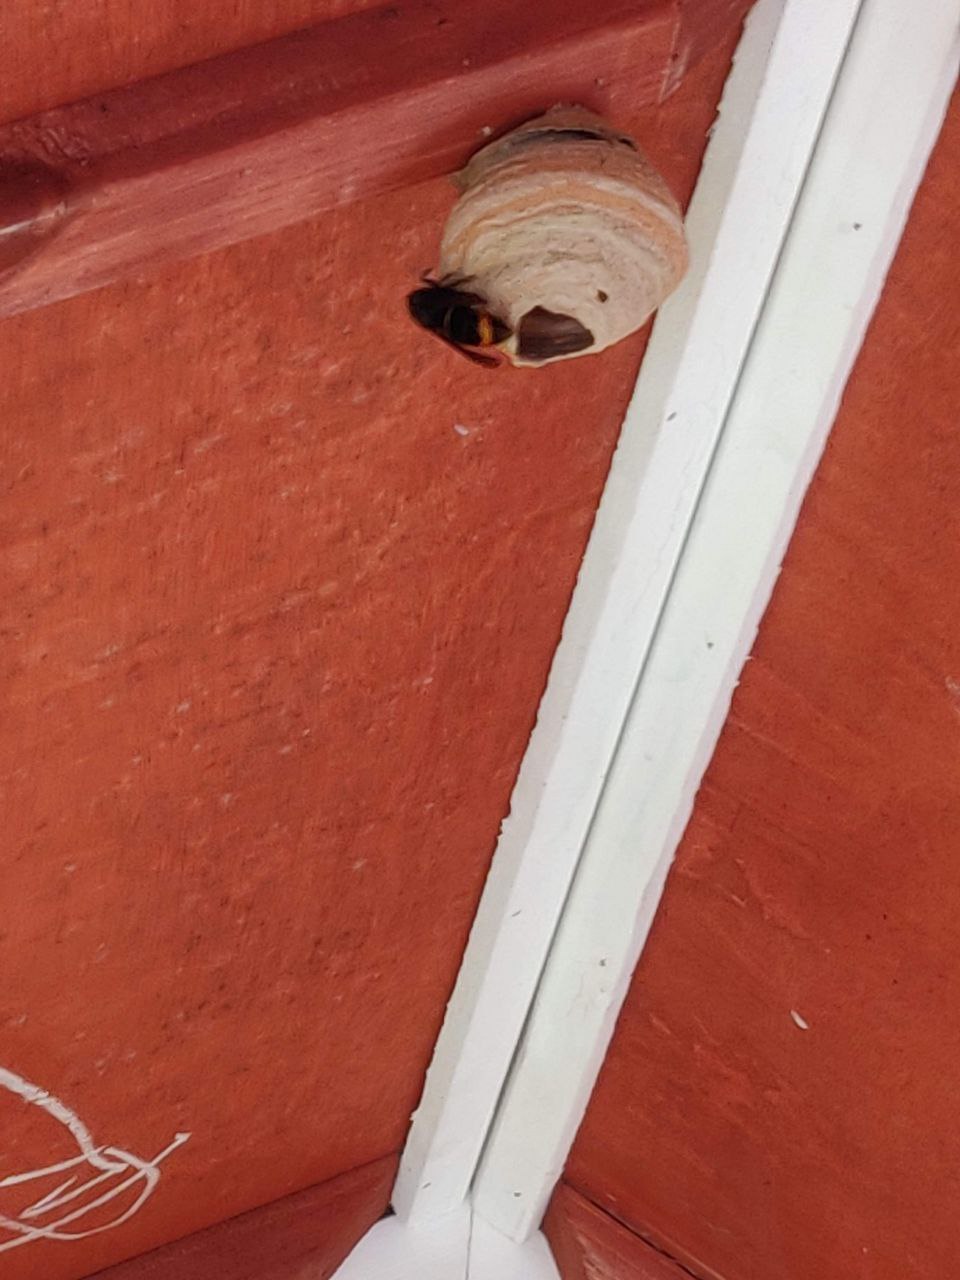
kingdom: Animalia
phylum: Arthropoda
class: Insecta
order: Hymenoptera
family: Vespidae
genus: Vespa
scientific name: Vespa velutina
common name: Asian hornet
